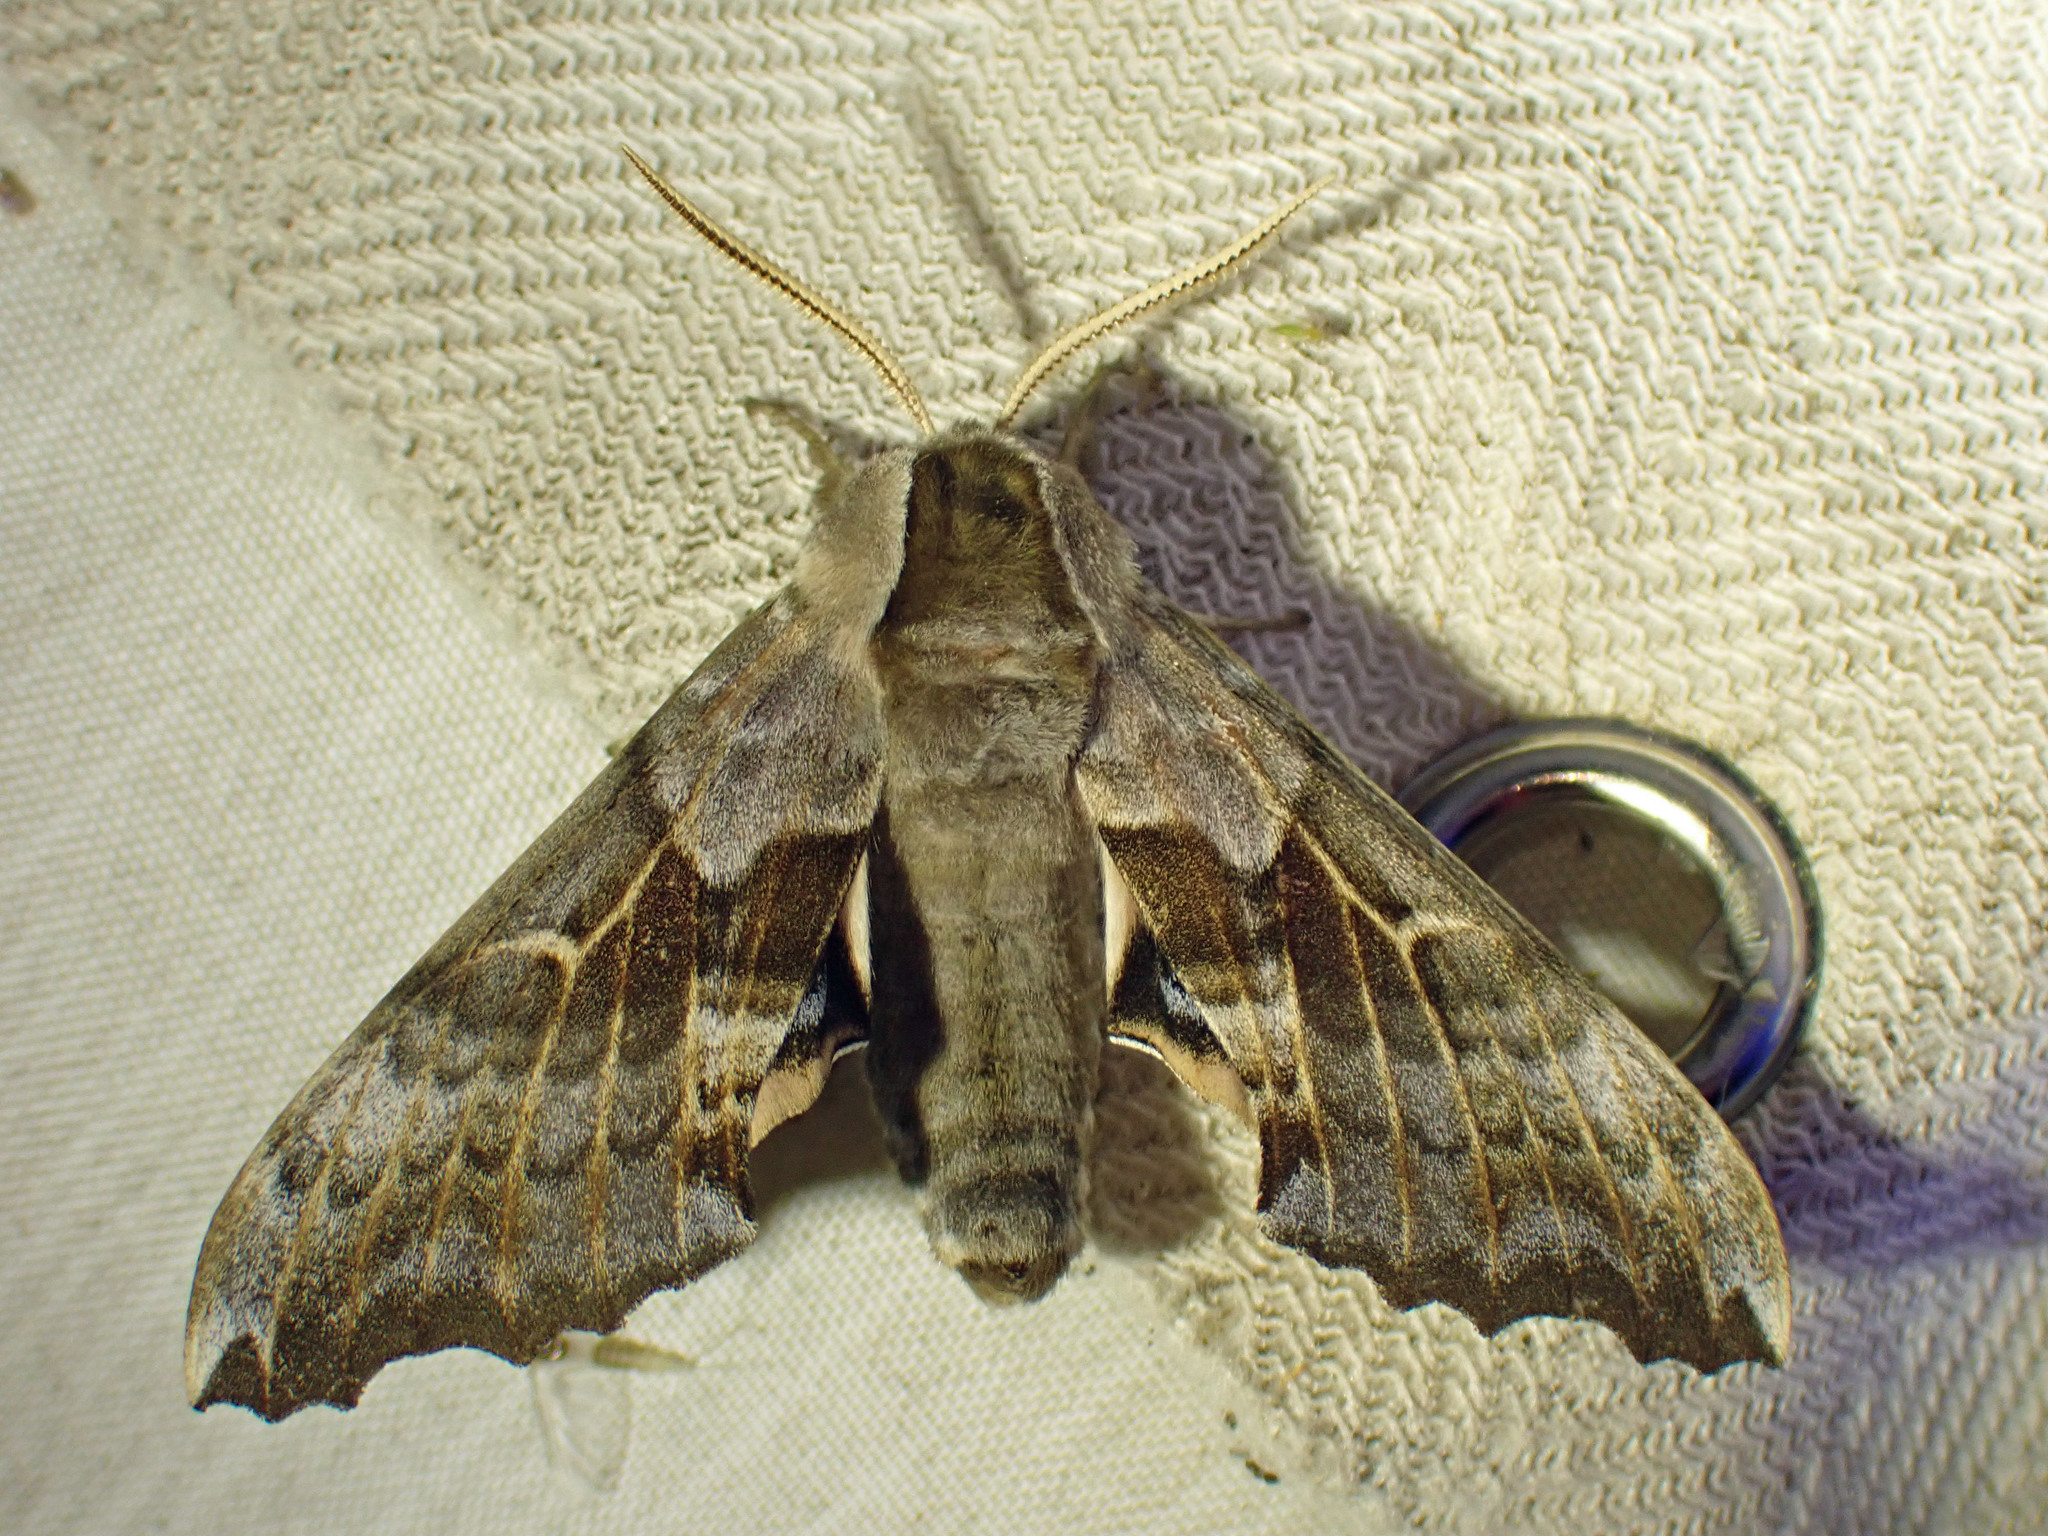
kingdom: Animalia
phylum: Arthropoda
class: Insecta
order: Lepidoptera
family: Sphingidae
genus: Smerinthus
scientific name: Smerinthus cerisyi
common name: Cerisy's sphinx moth
